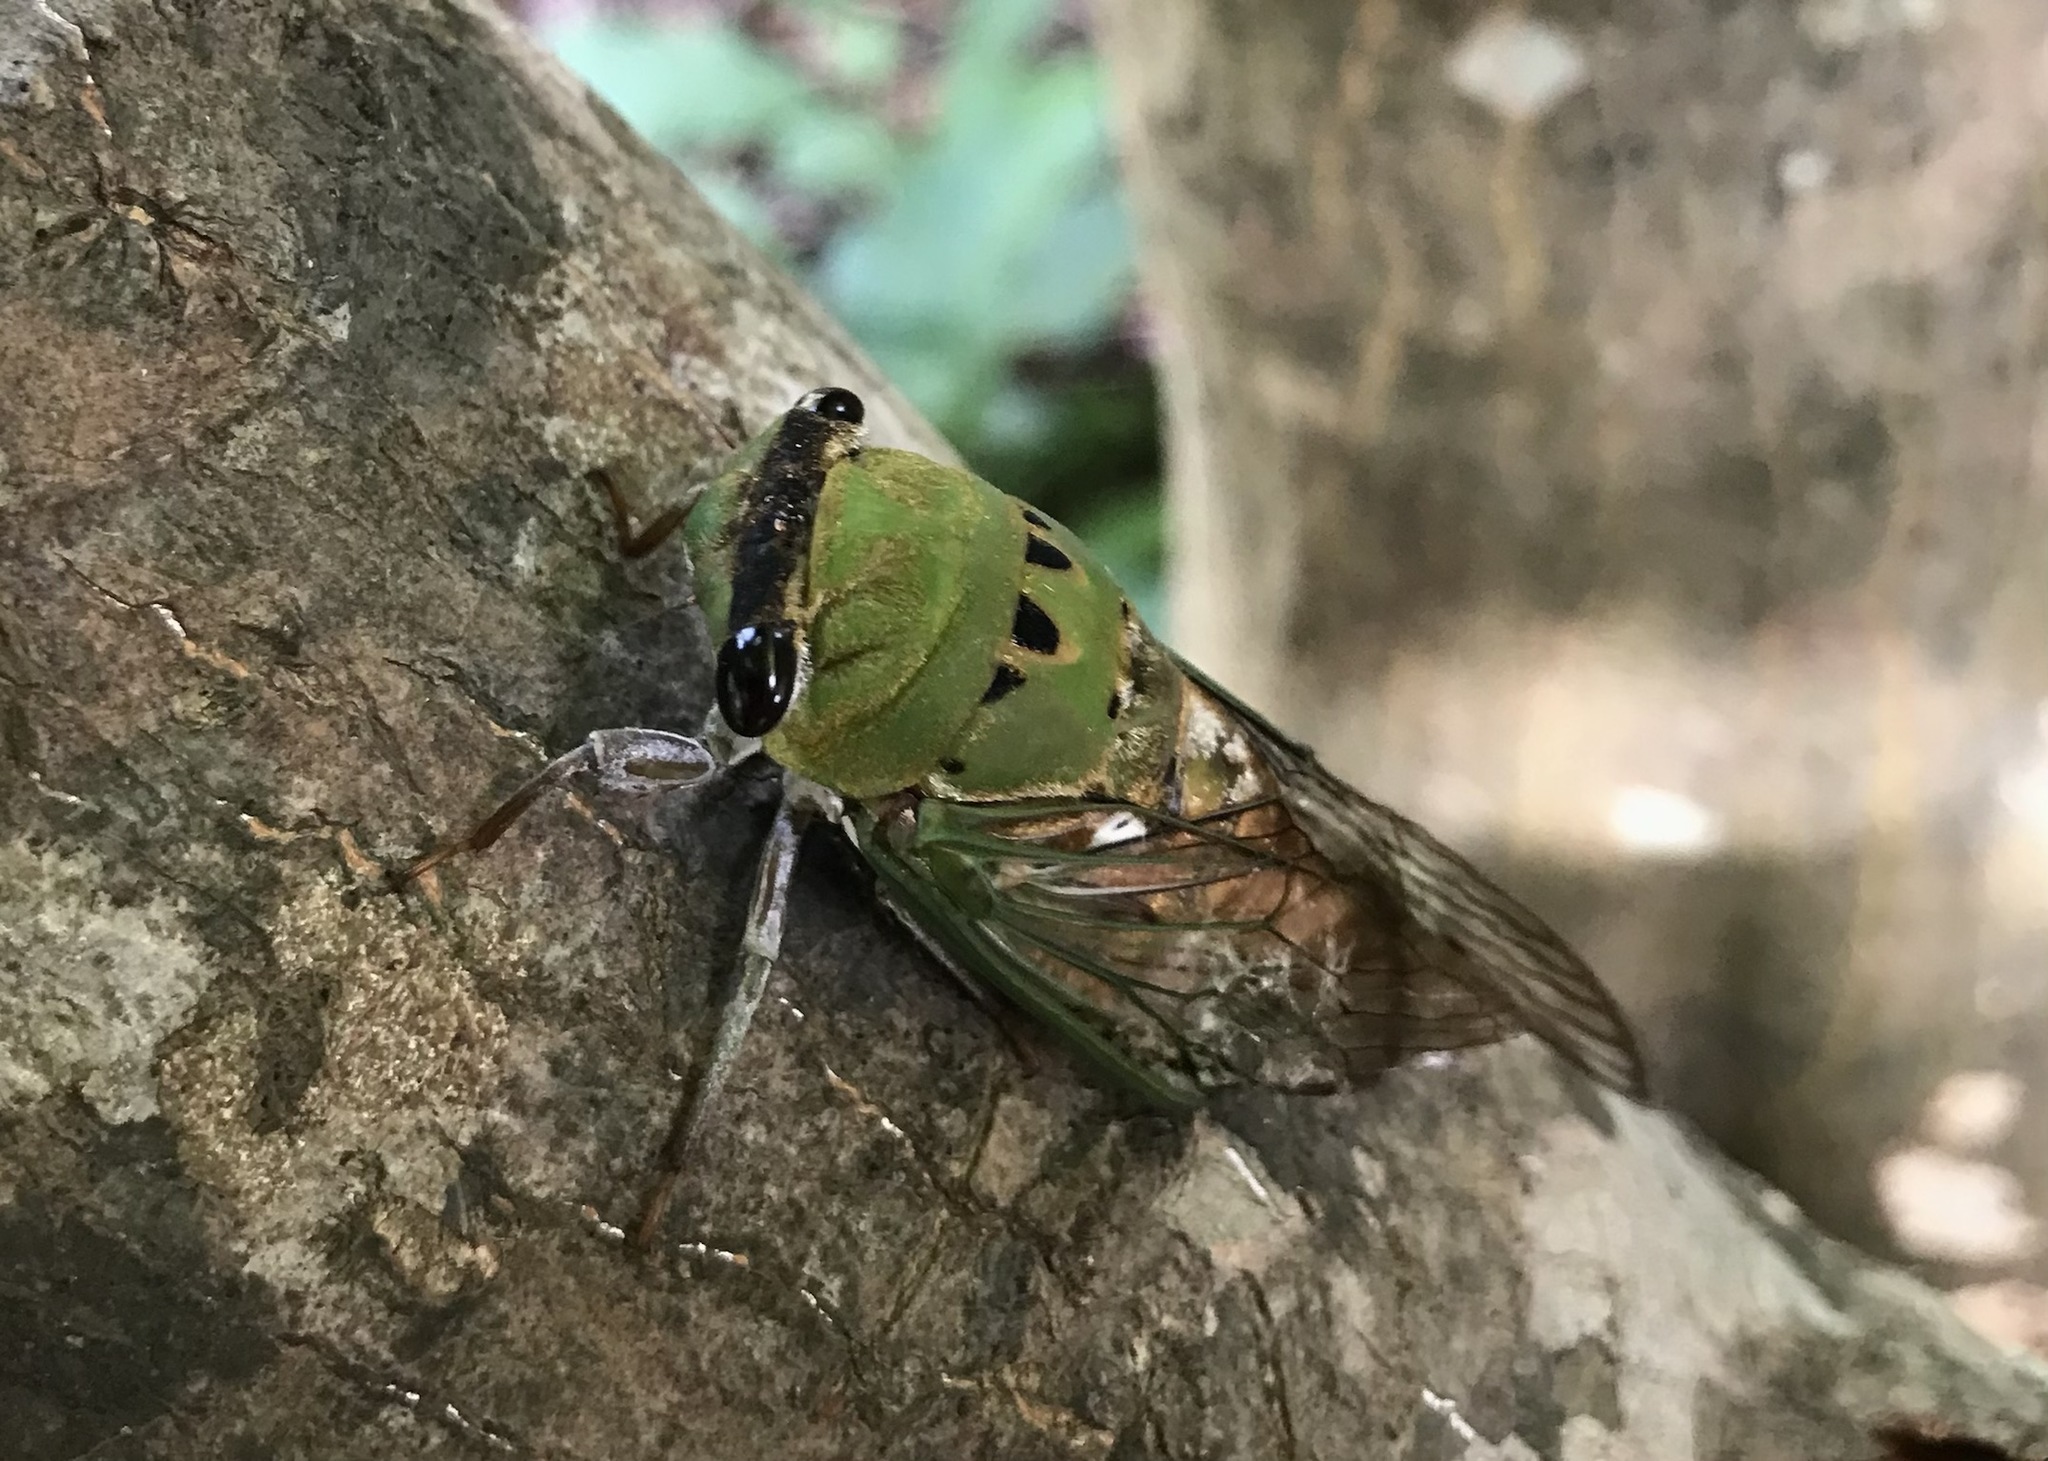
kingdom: Animalia
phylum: Arthropoda
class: Insecta
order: Hemiptera
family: Cicadidae
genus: Neotibicen
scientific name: Neotibicen superbus
